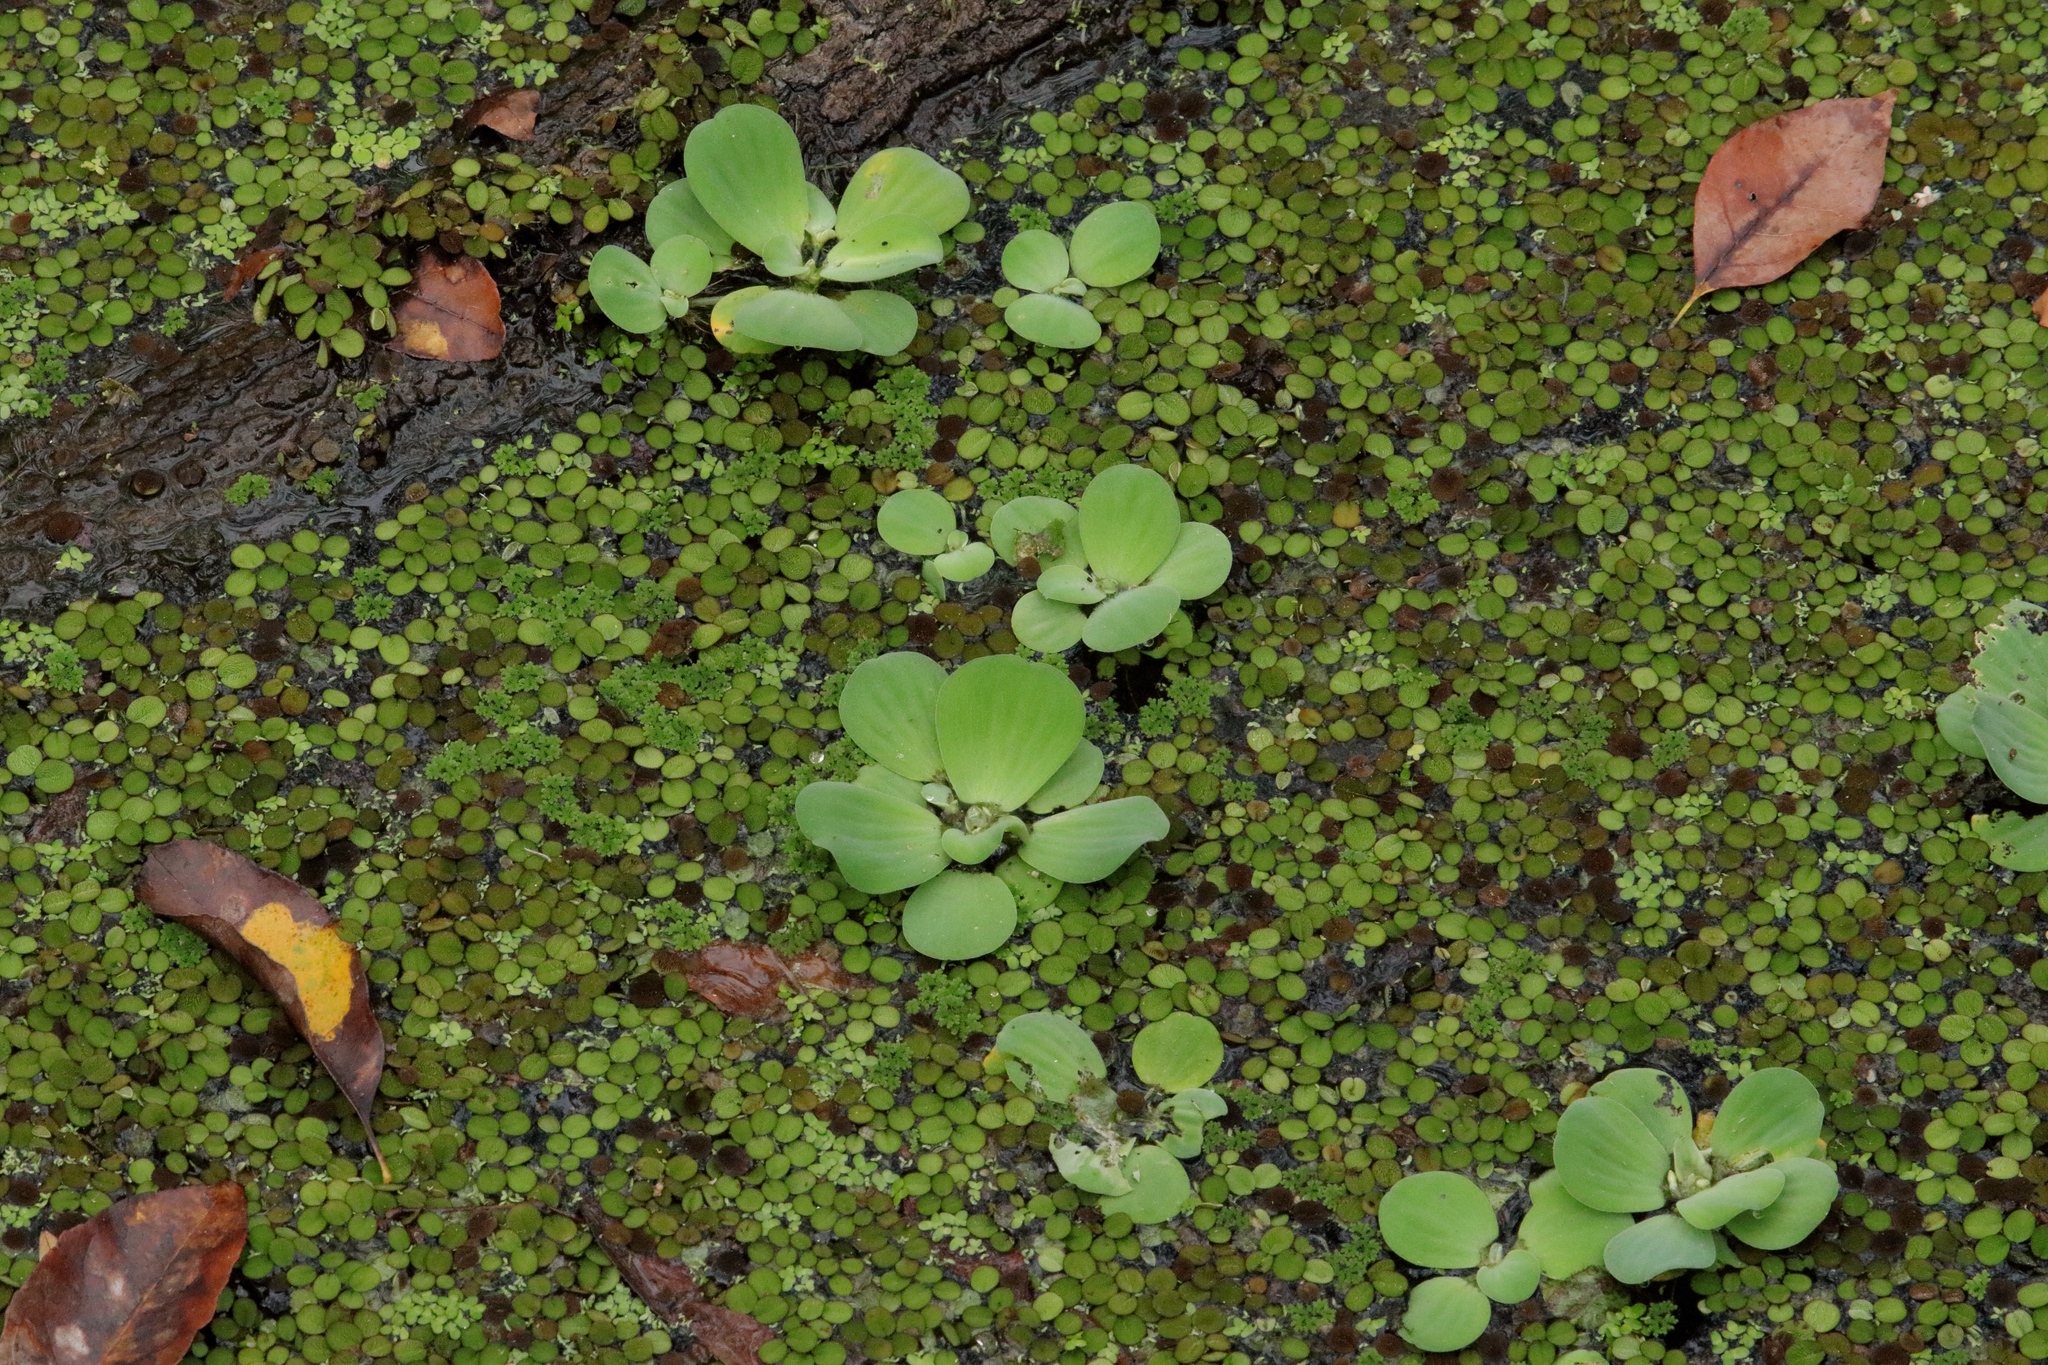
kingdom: Plantae
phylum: Tracheophyta
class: Liliopsida
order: Alismatales
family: Araceae
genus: Pistia
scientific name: Pistia stratiotes
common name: Water lettuce
